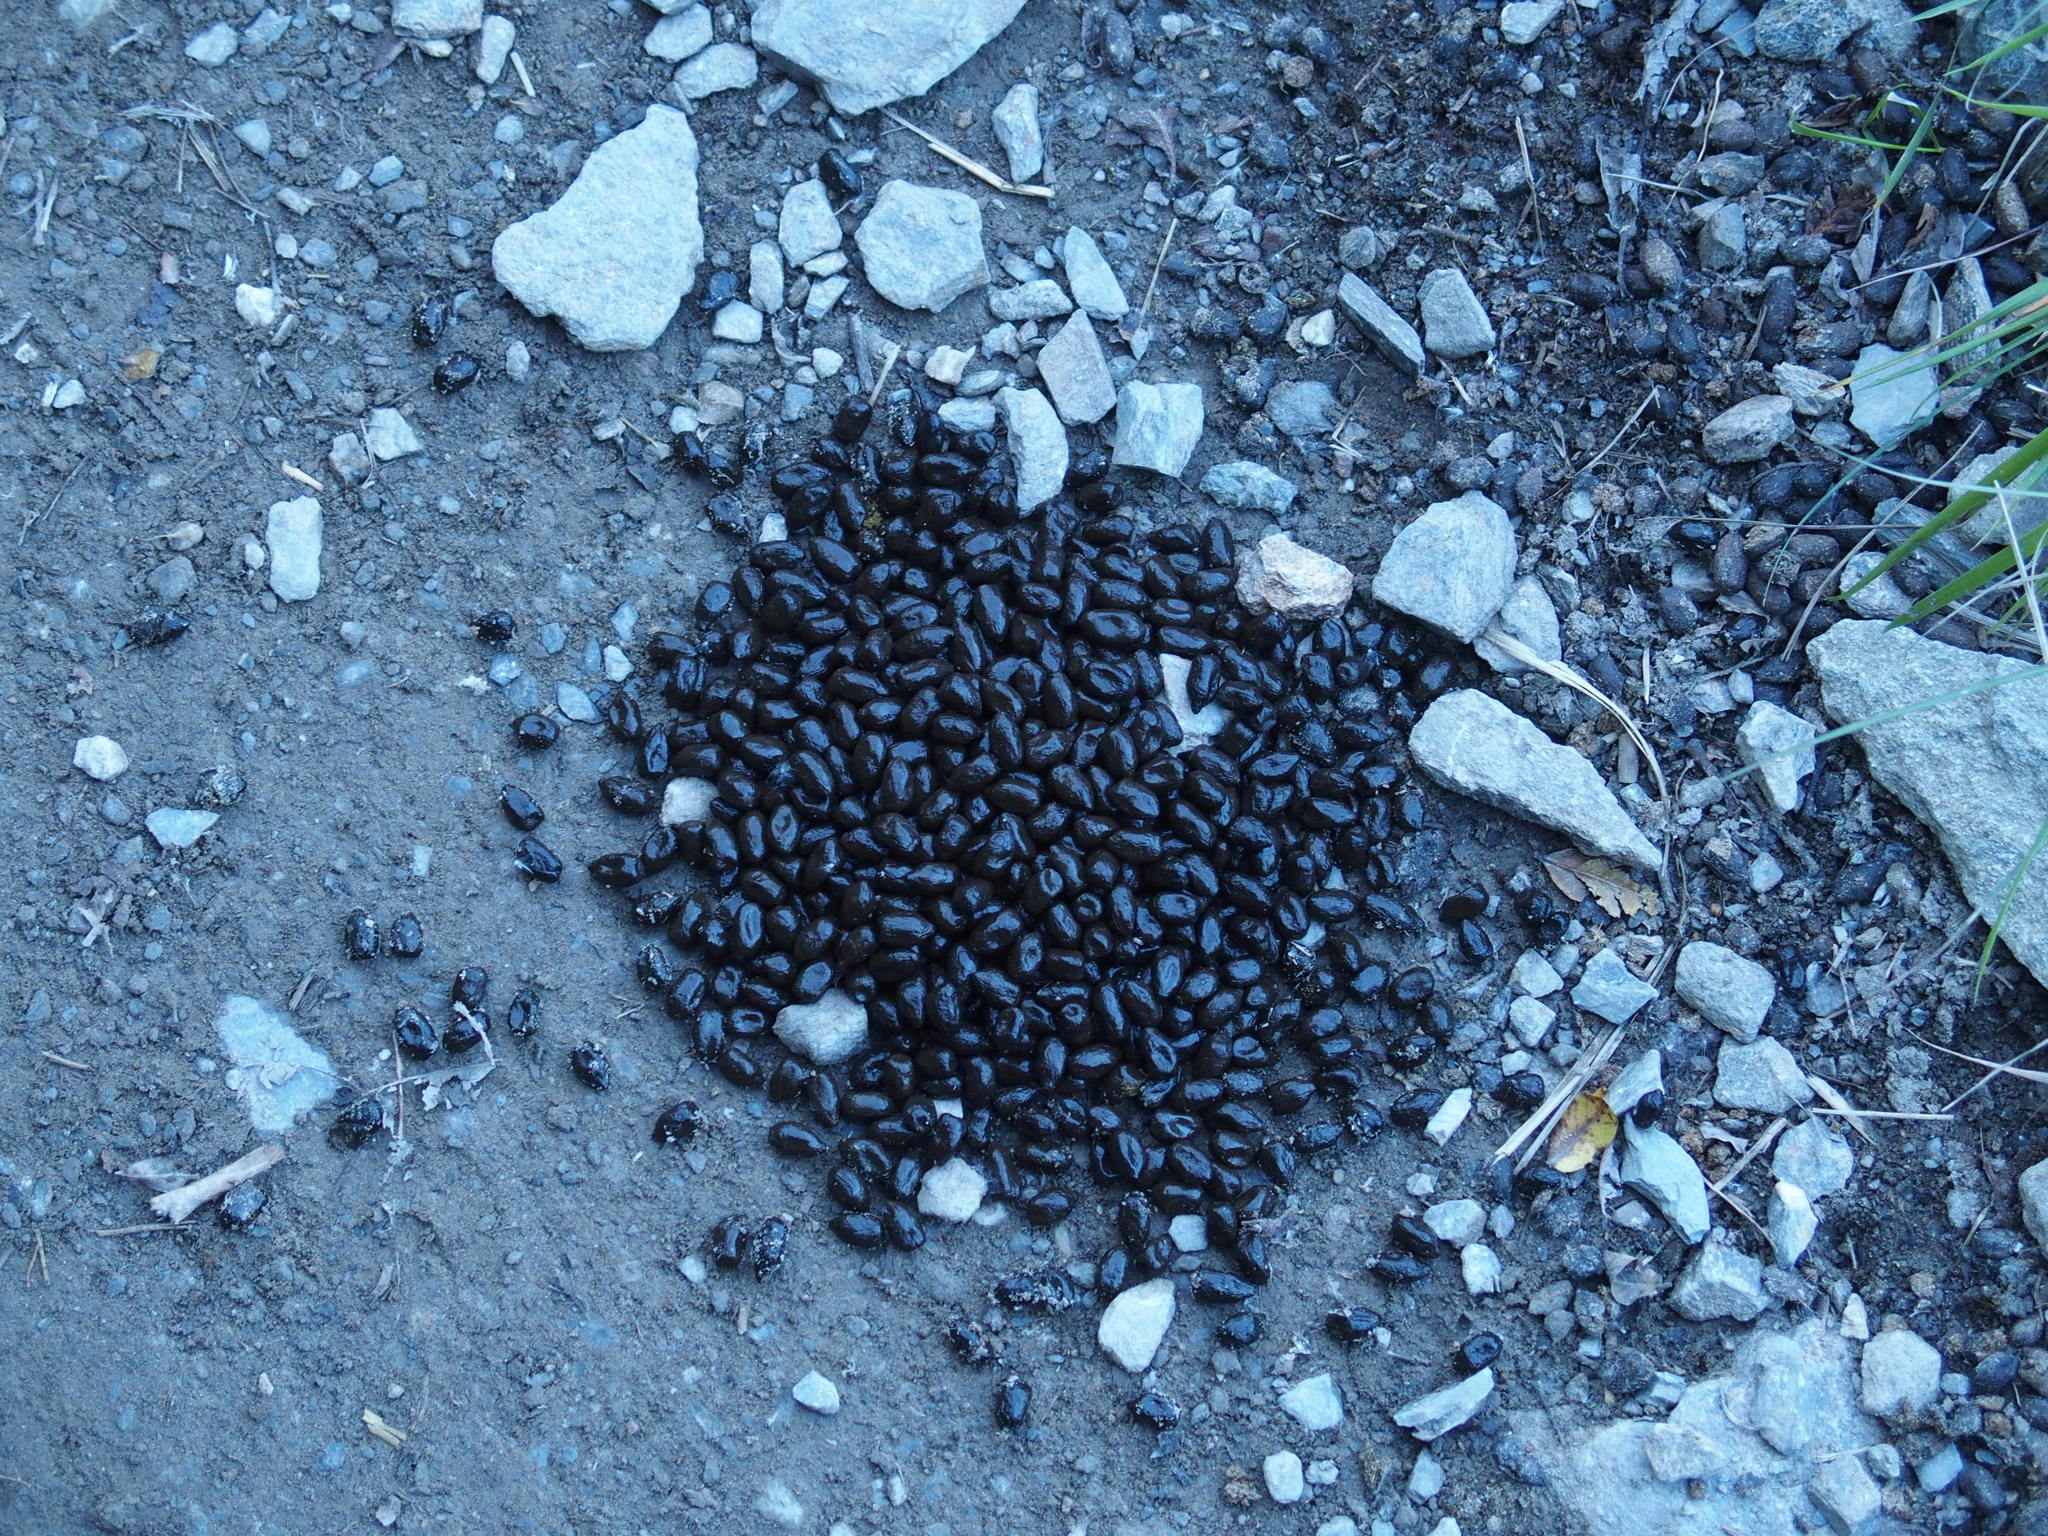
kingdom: Animalia
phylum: Chordata
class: Mammalia
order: Artiodactyla
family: Bovidae
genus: Capricornis
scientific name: Capricornis swinhoei
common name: Formosan serow
